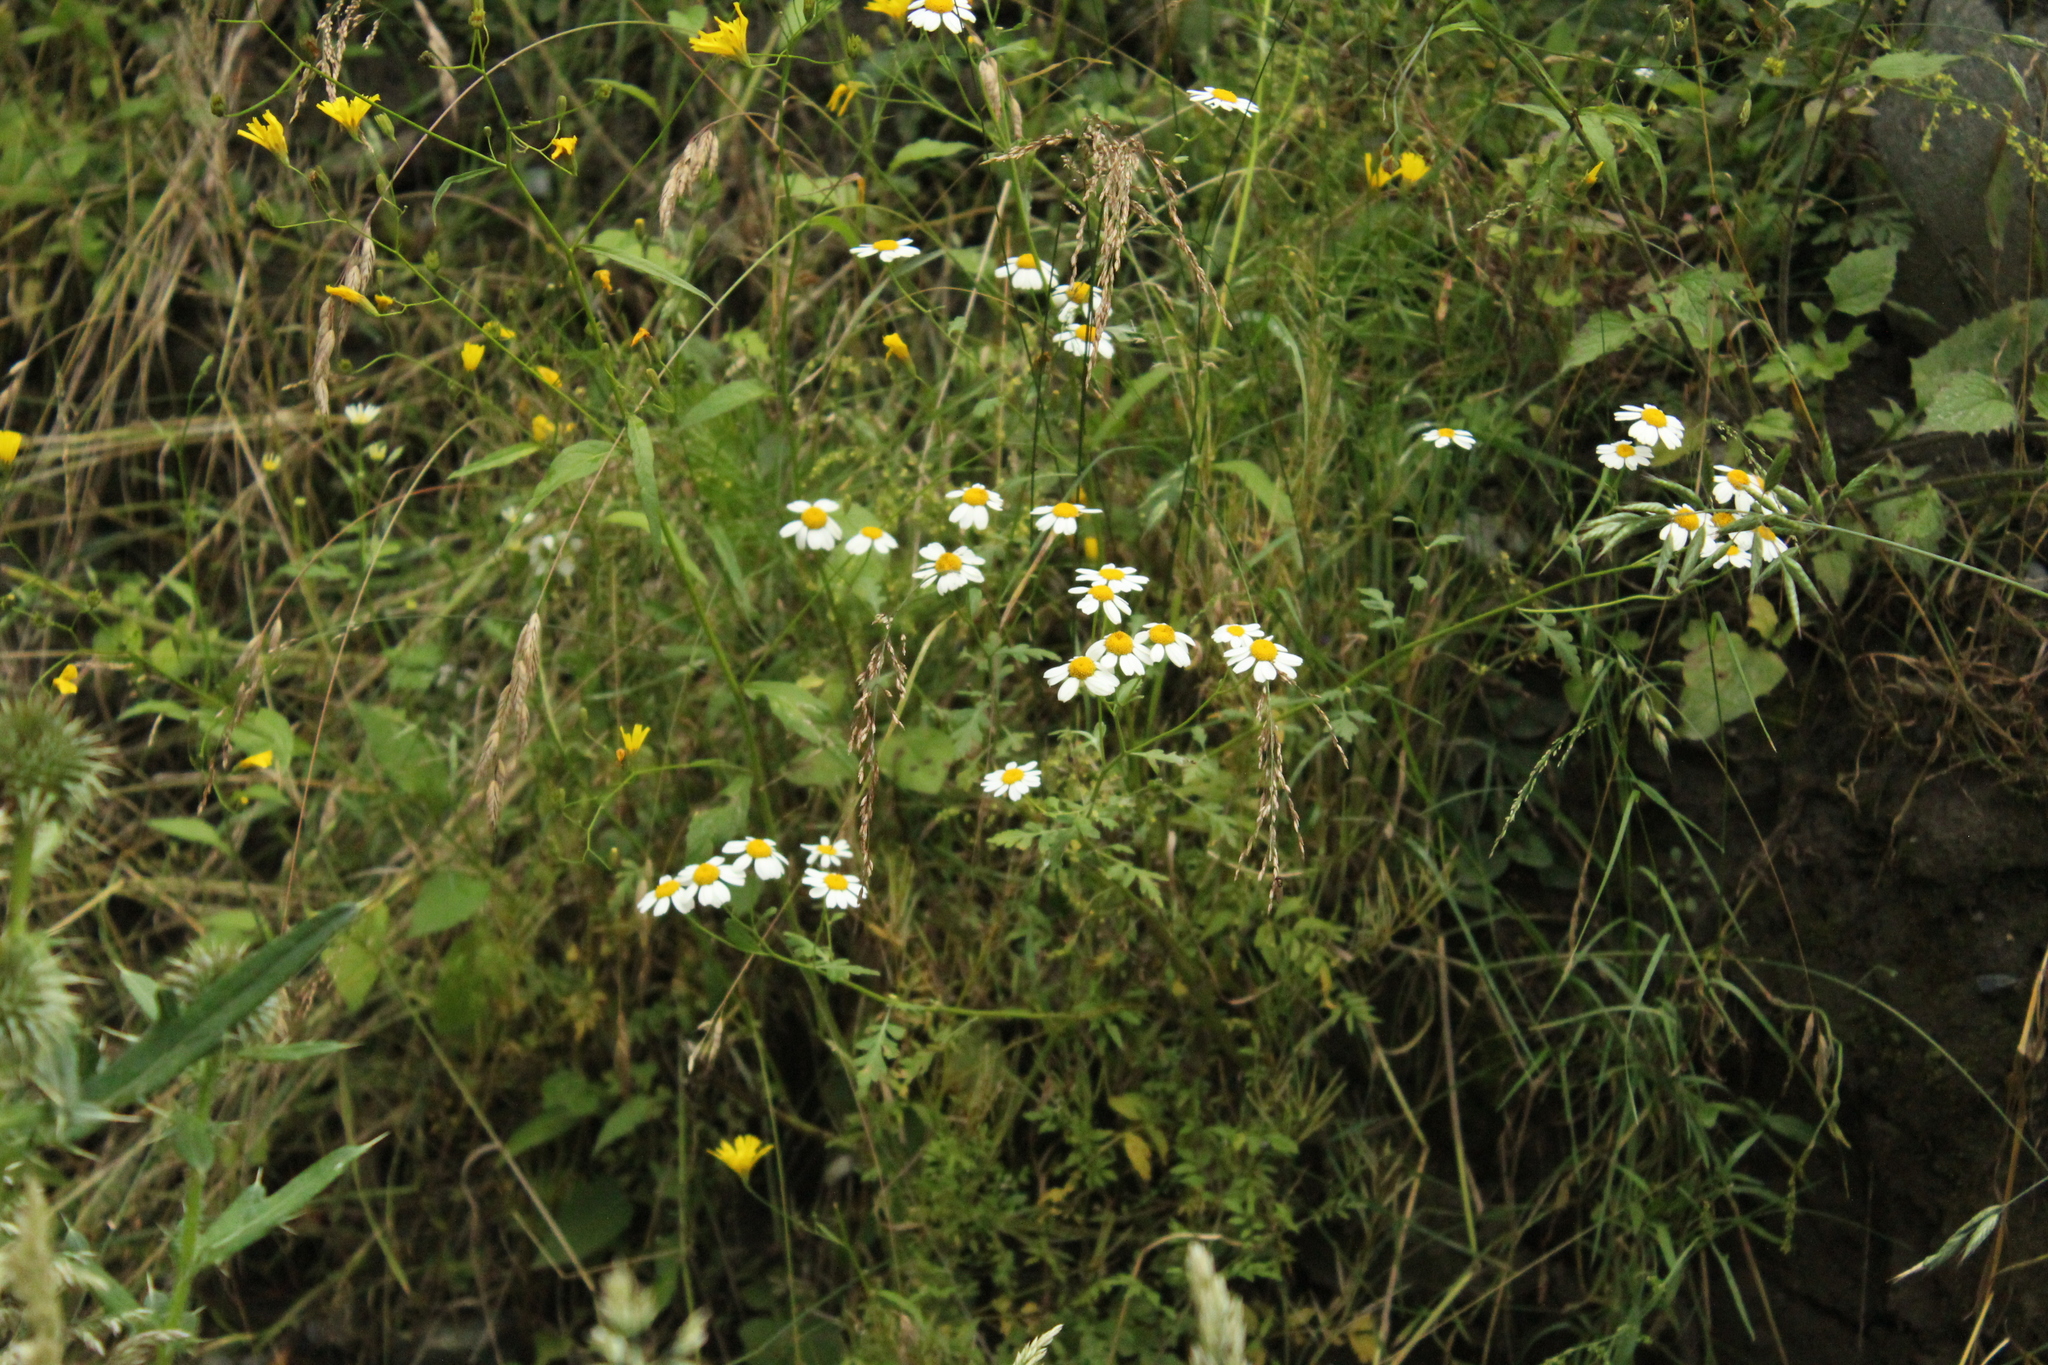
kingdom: Plantae
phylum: Tracheophyta
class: Magnoliopsida
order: Asterales
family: Asteraceae
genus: Tanacetum
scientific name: Tanacetum partheniifolium
